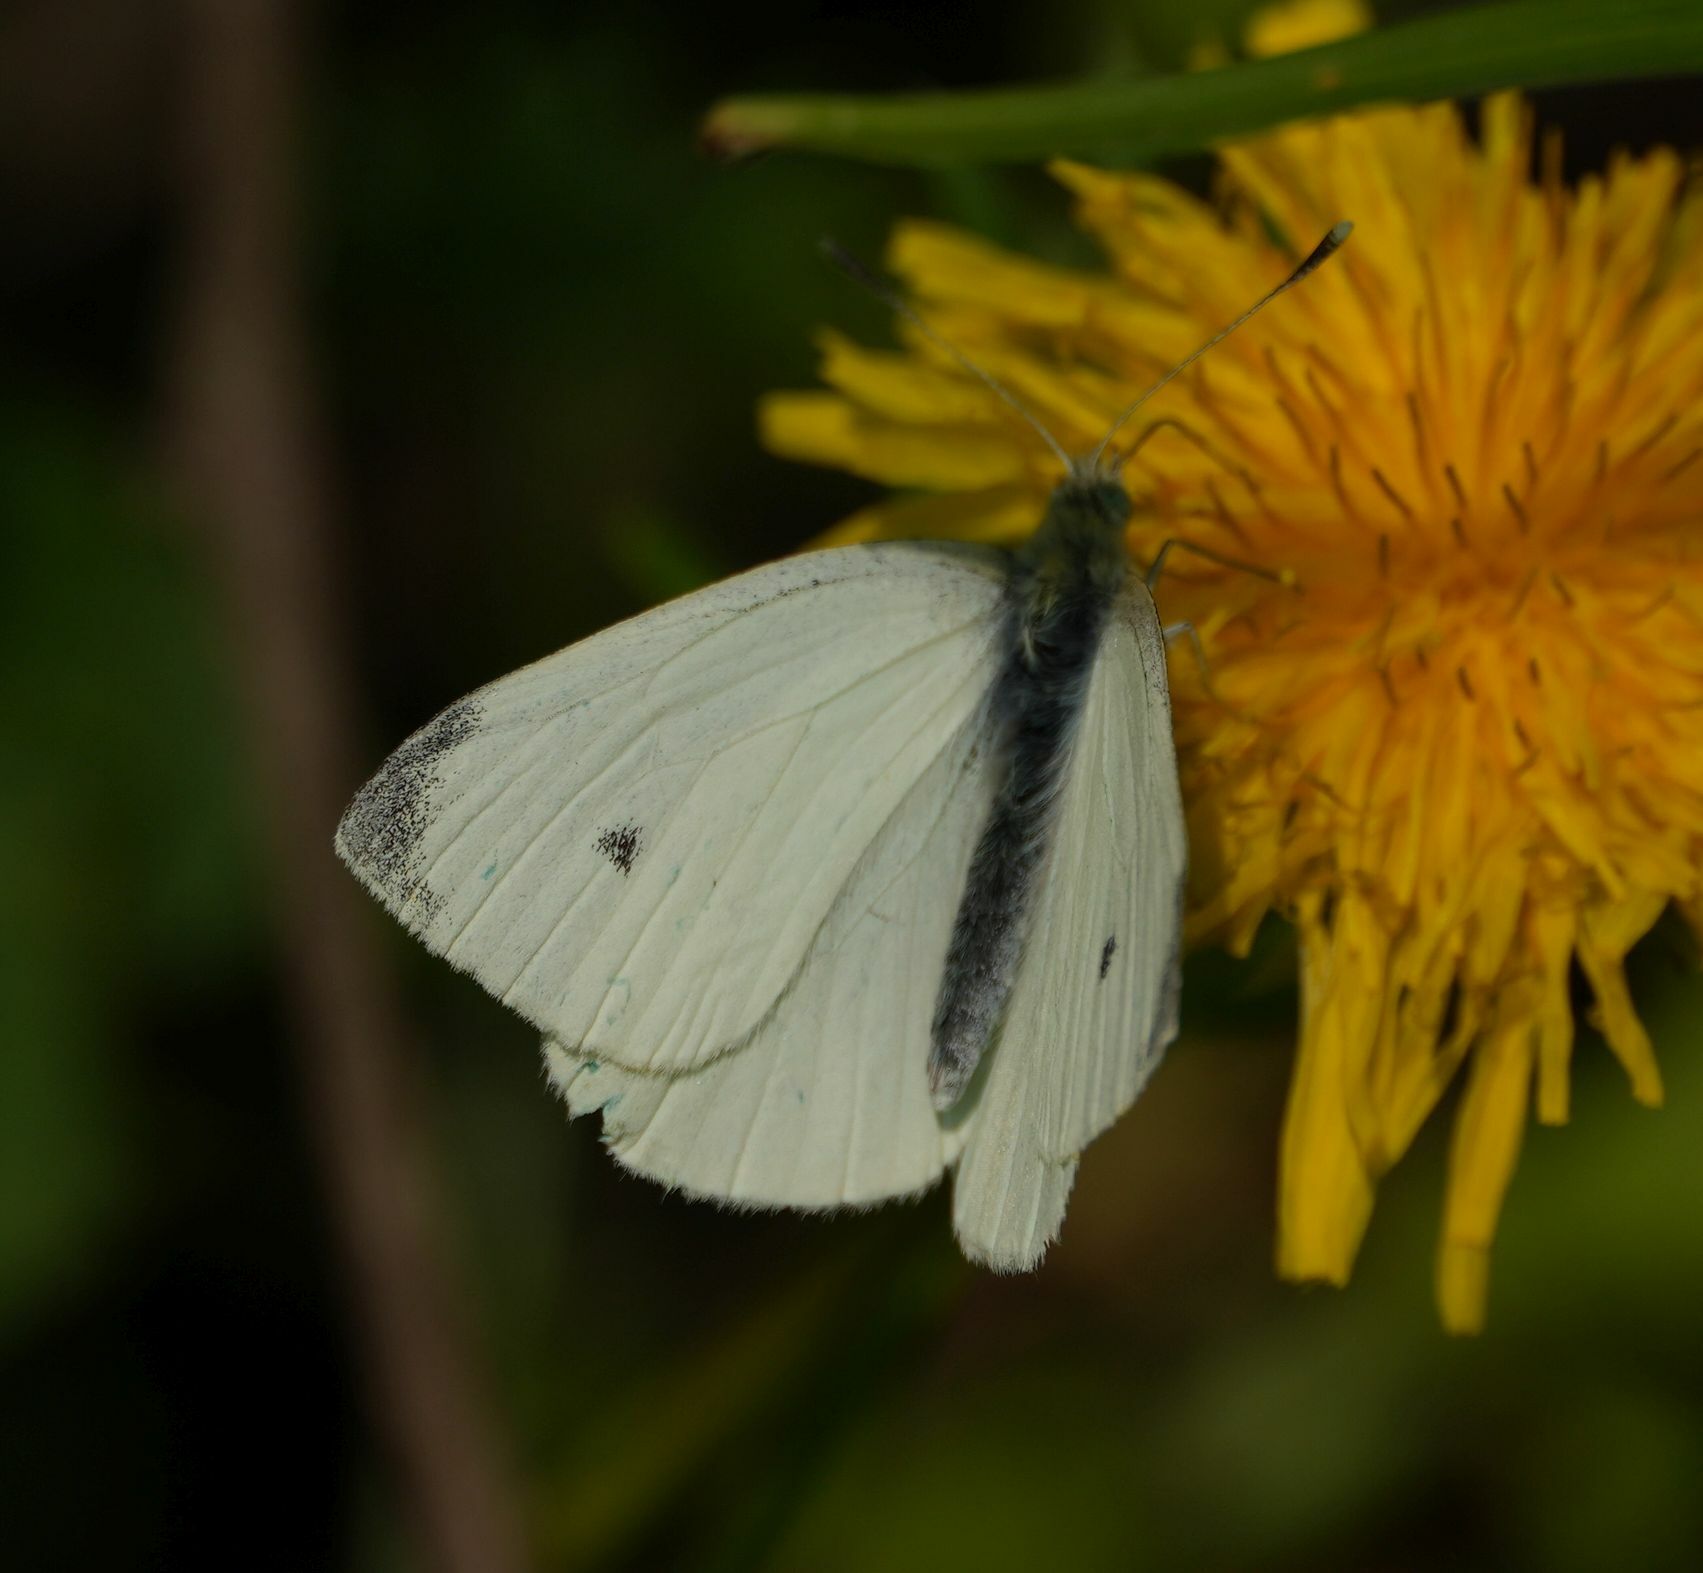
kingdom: Animalia
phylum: Arthropoda
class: Insecta
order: Lepidoptera
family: Pieridae
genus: Pieris
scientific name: Pieris rapae
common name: Small white
